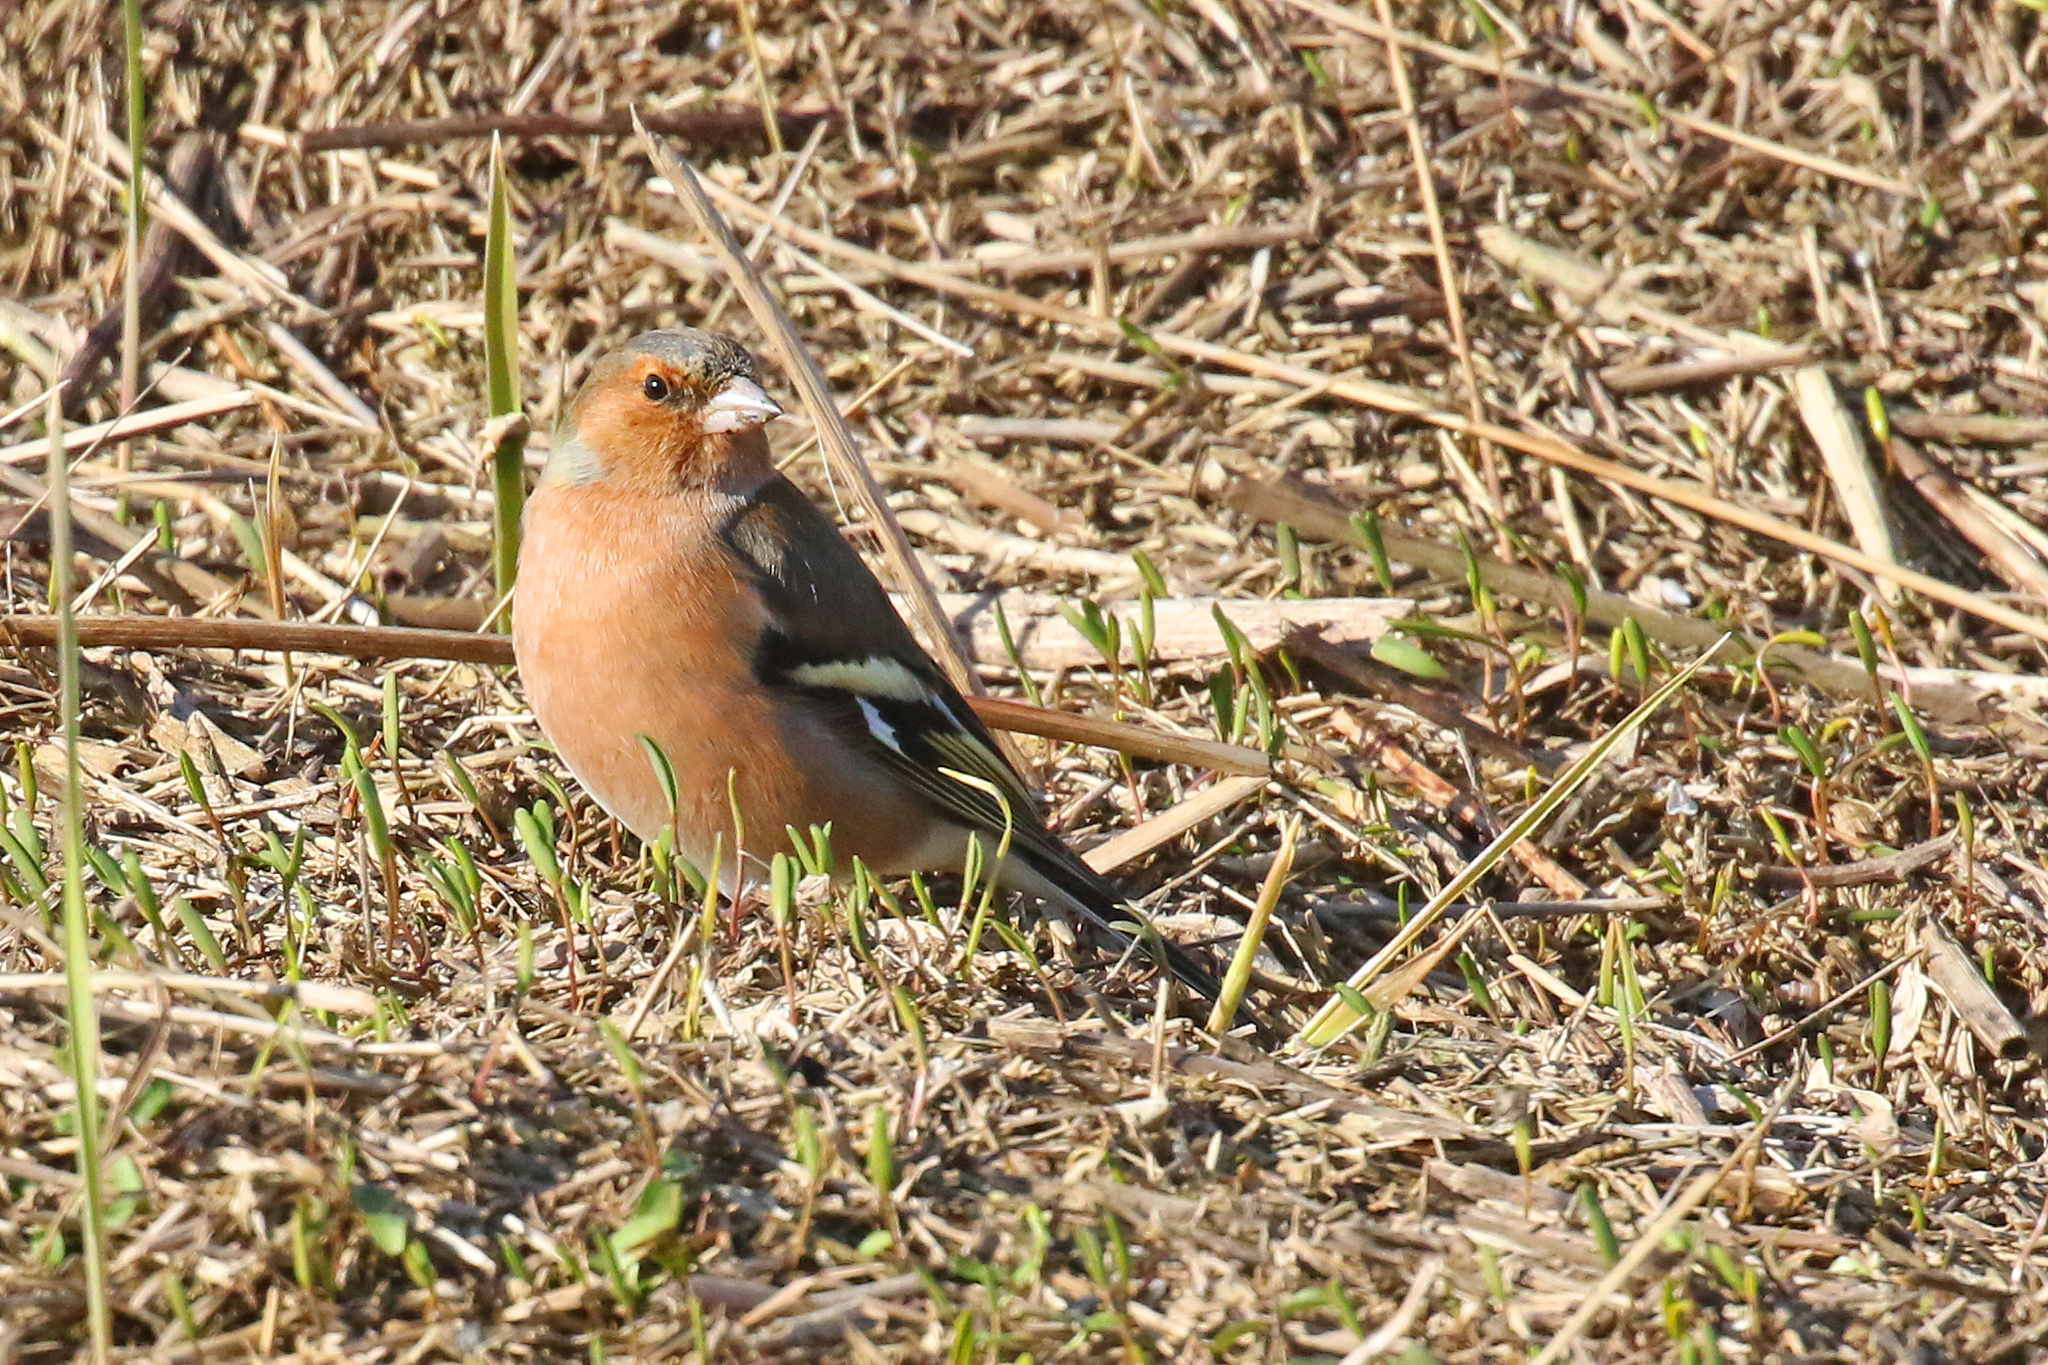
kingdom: Animalia
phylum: Chordata
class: Aves
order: Passeriformes
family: Fringillidae
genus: Fringilla
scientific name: Fringilla coelebs
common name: Common chaffinch
